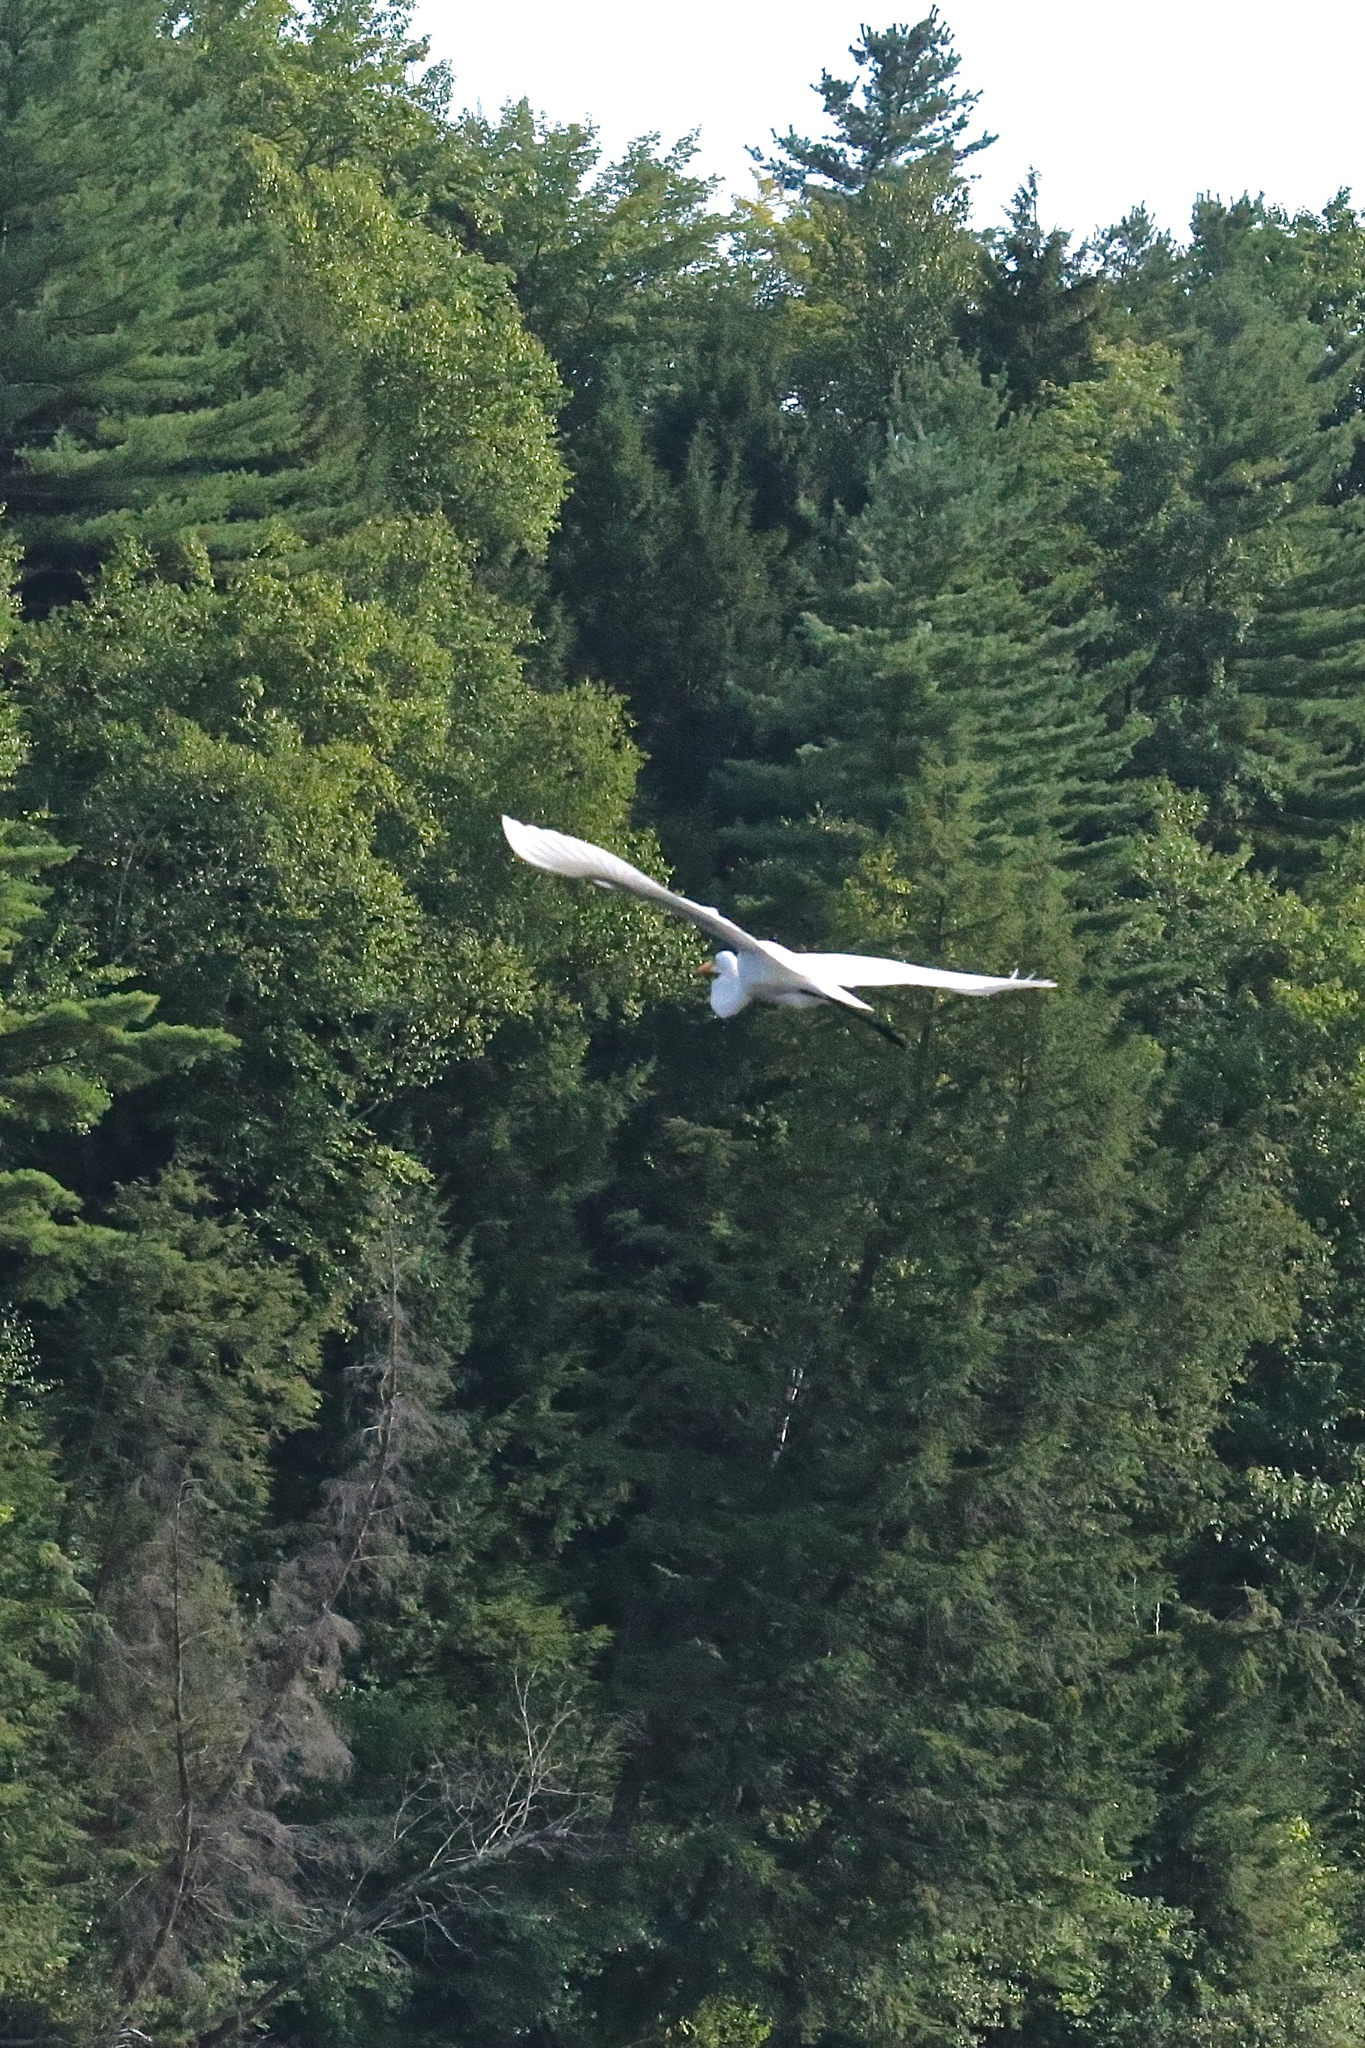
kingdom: Animalia
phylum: Chordata
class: Aves
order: Pelecaniformes
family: Ardeidae
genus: Ardea
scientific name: Ardea alba
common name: Great egret
